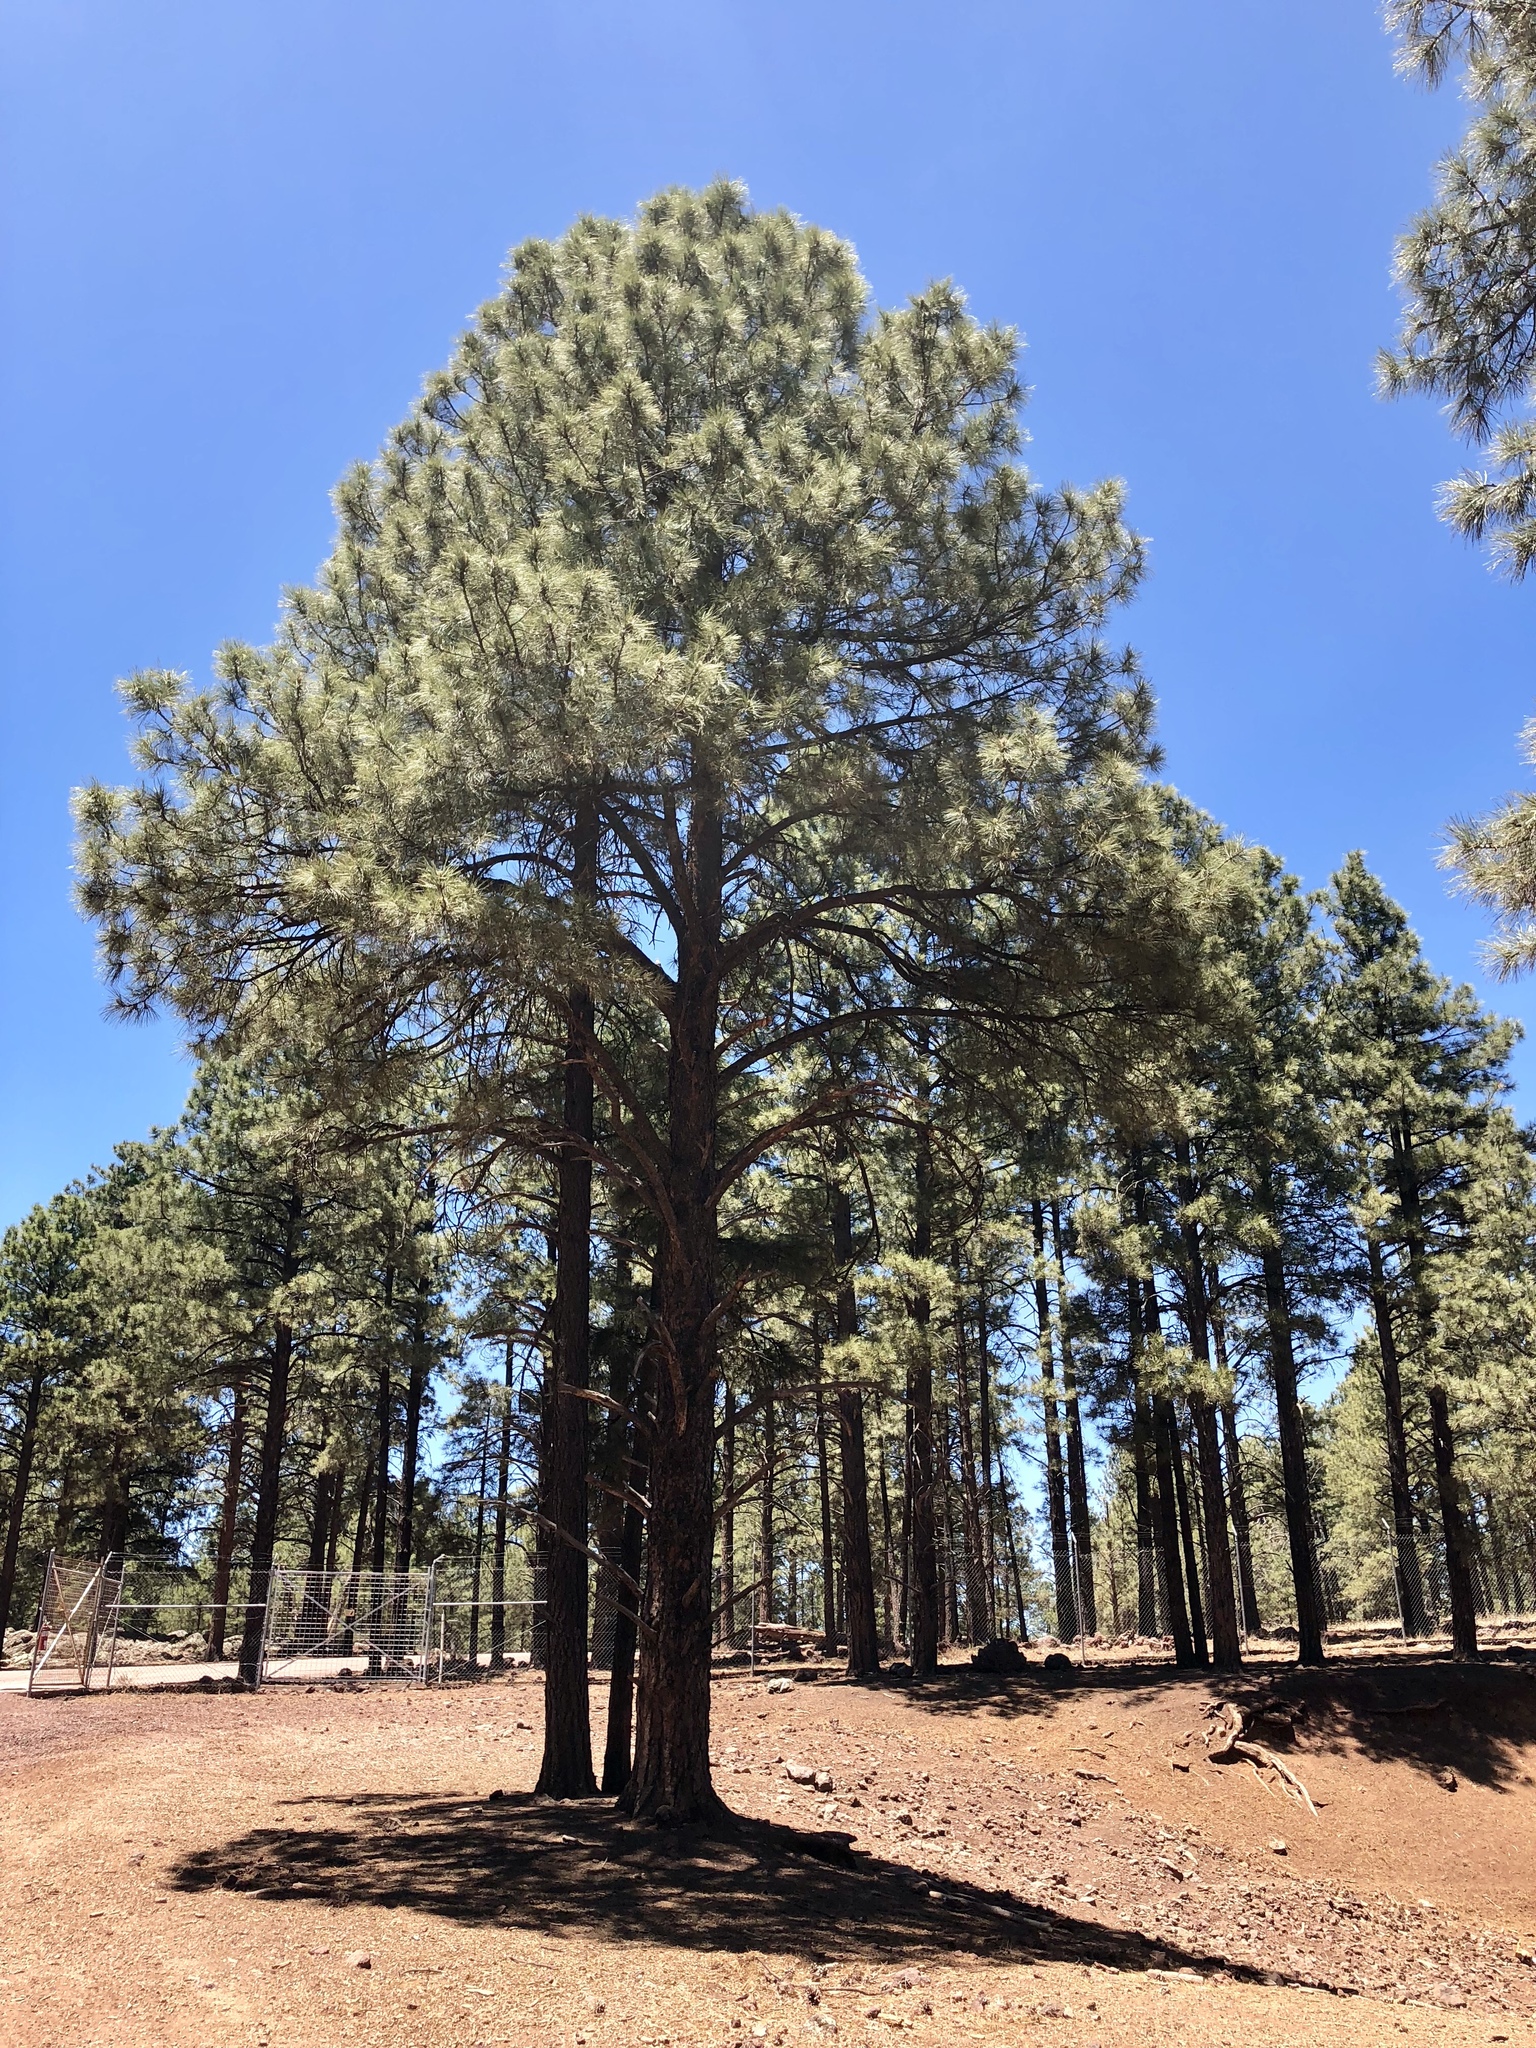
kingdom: Plantae
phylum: Tracheophyta
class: Pinopsida
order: Pinales
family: Pinaceae
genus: Pinus
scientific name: Pinus ponderosa
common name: Western yellow-pine
